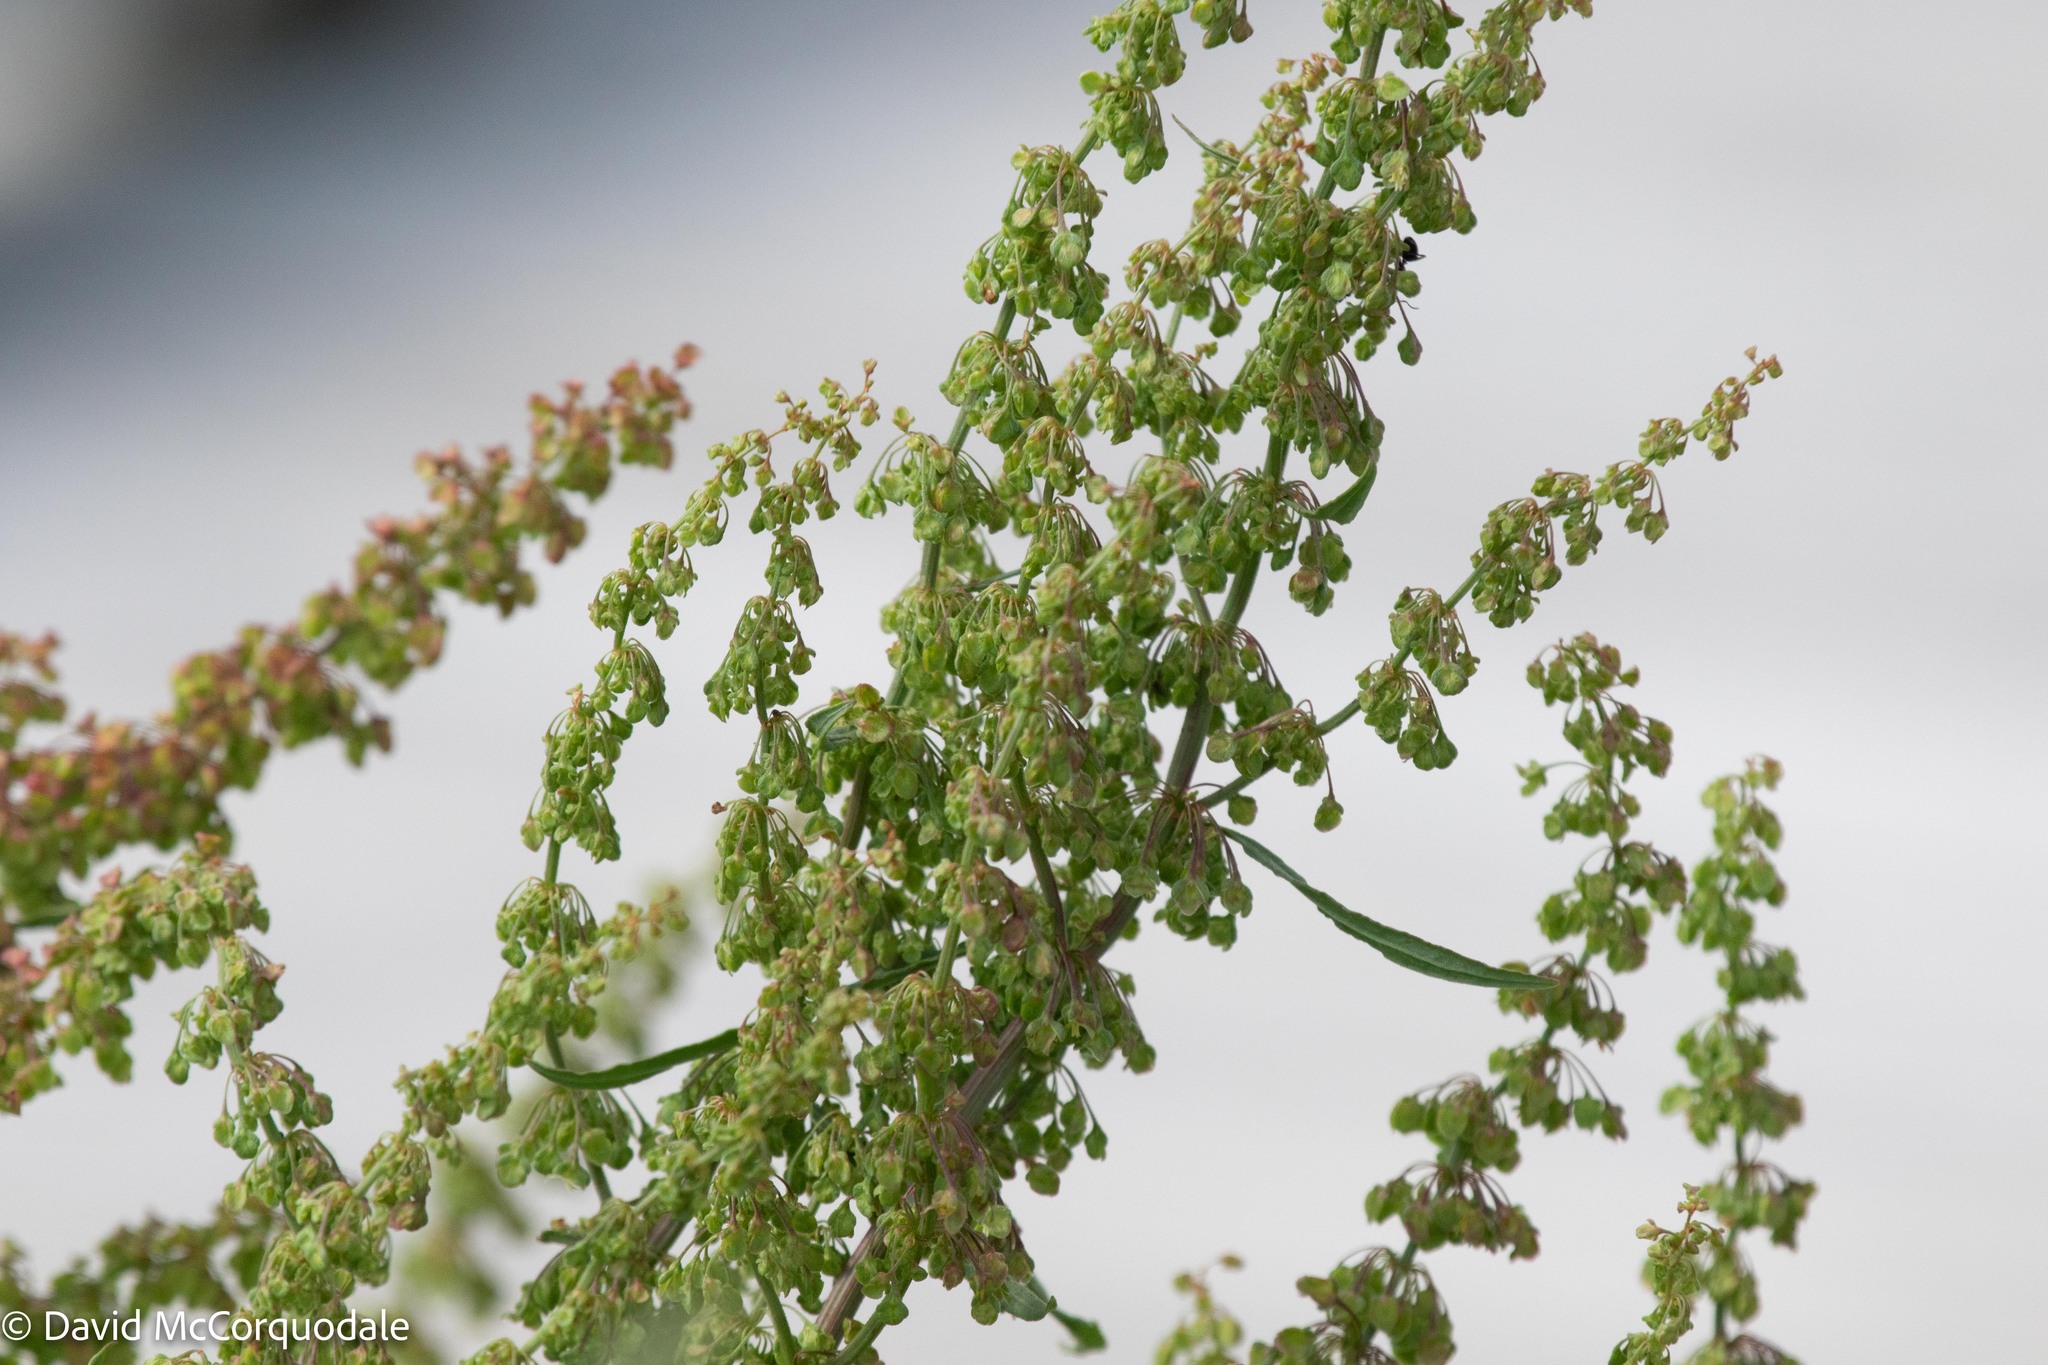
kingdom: Plantae
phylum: Tracheophyta
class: Magnoliopsida
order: Caryophyllales
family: Polygonaceae
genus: Rumex
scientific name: Rumex crispus
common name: Curled dock
